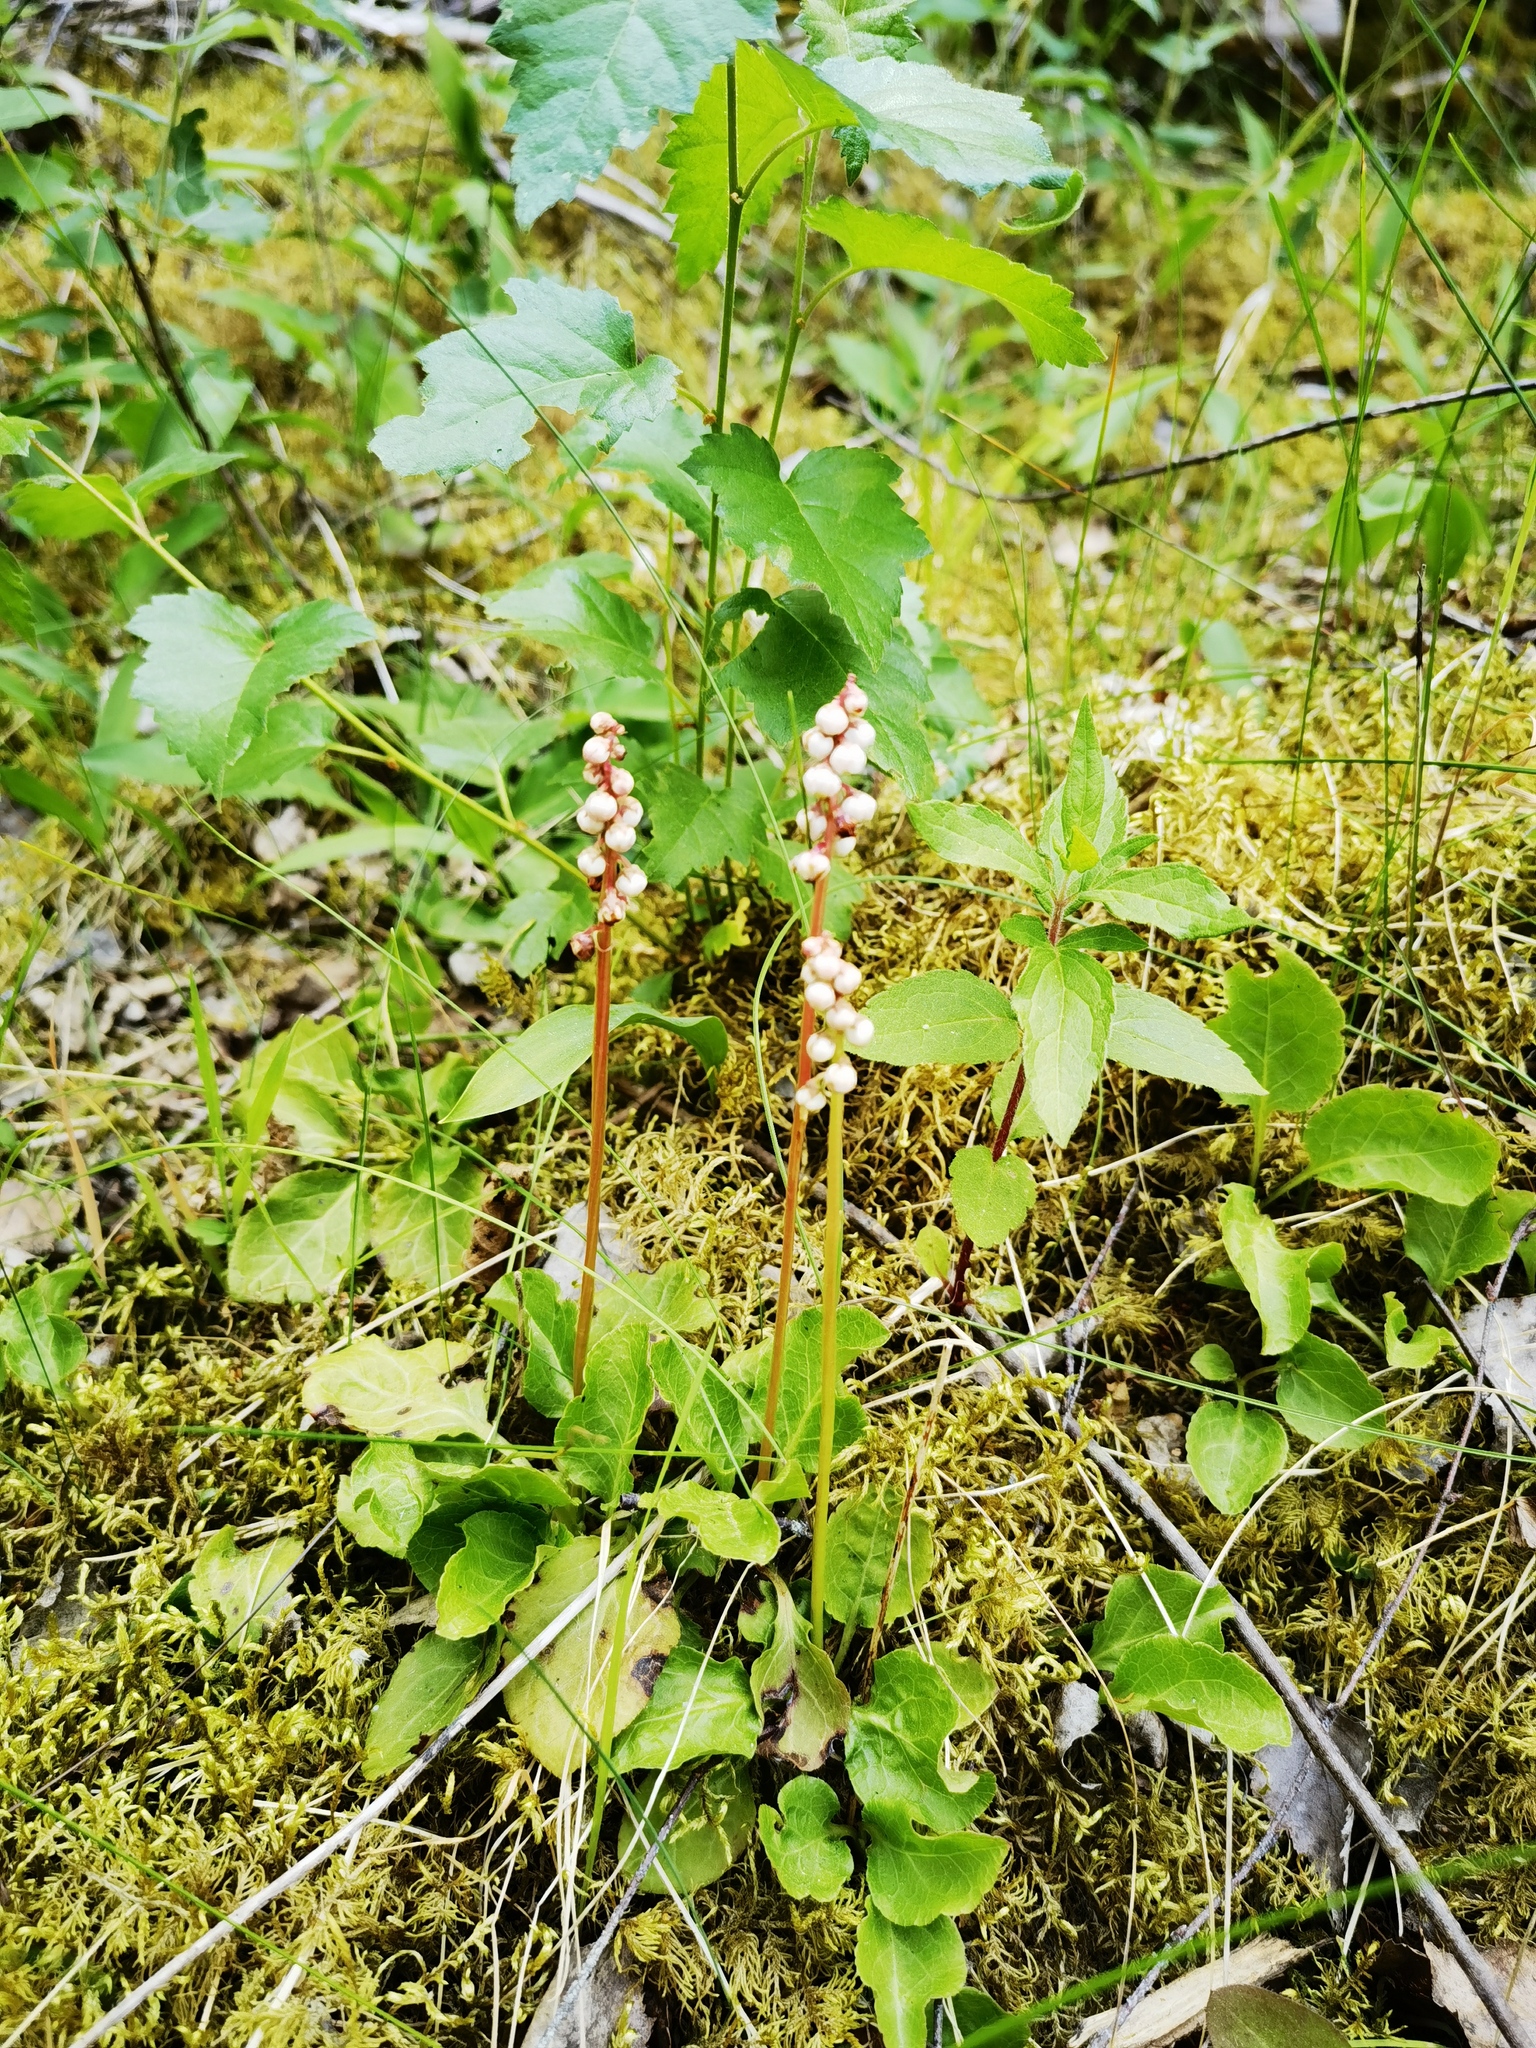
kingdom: Plantae
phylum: Tracheophyta
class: Magnoliopsida
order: Ericales
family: Ericaceae
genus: Pyrola
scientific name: Pyrola minor
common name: Common wintergreen
